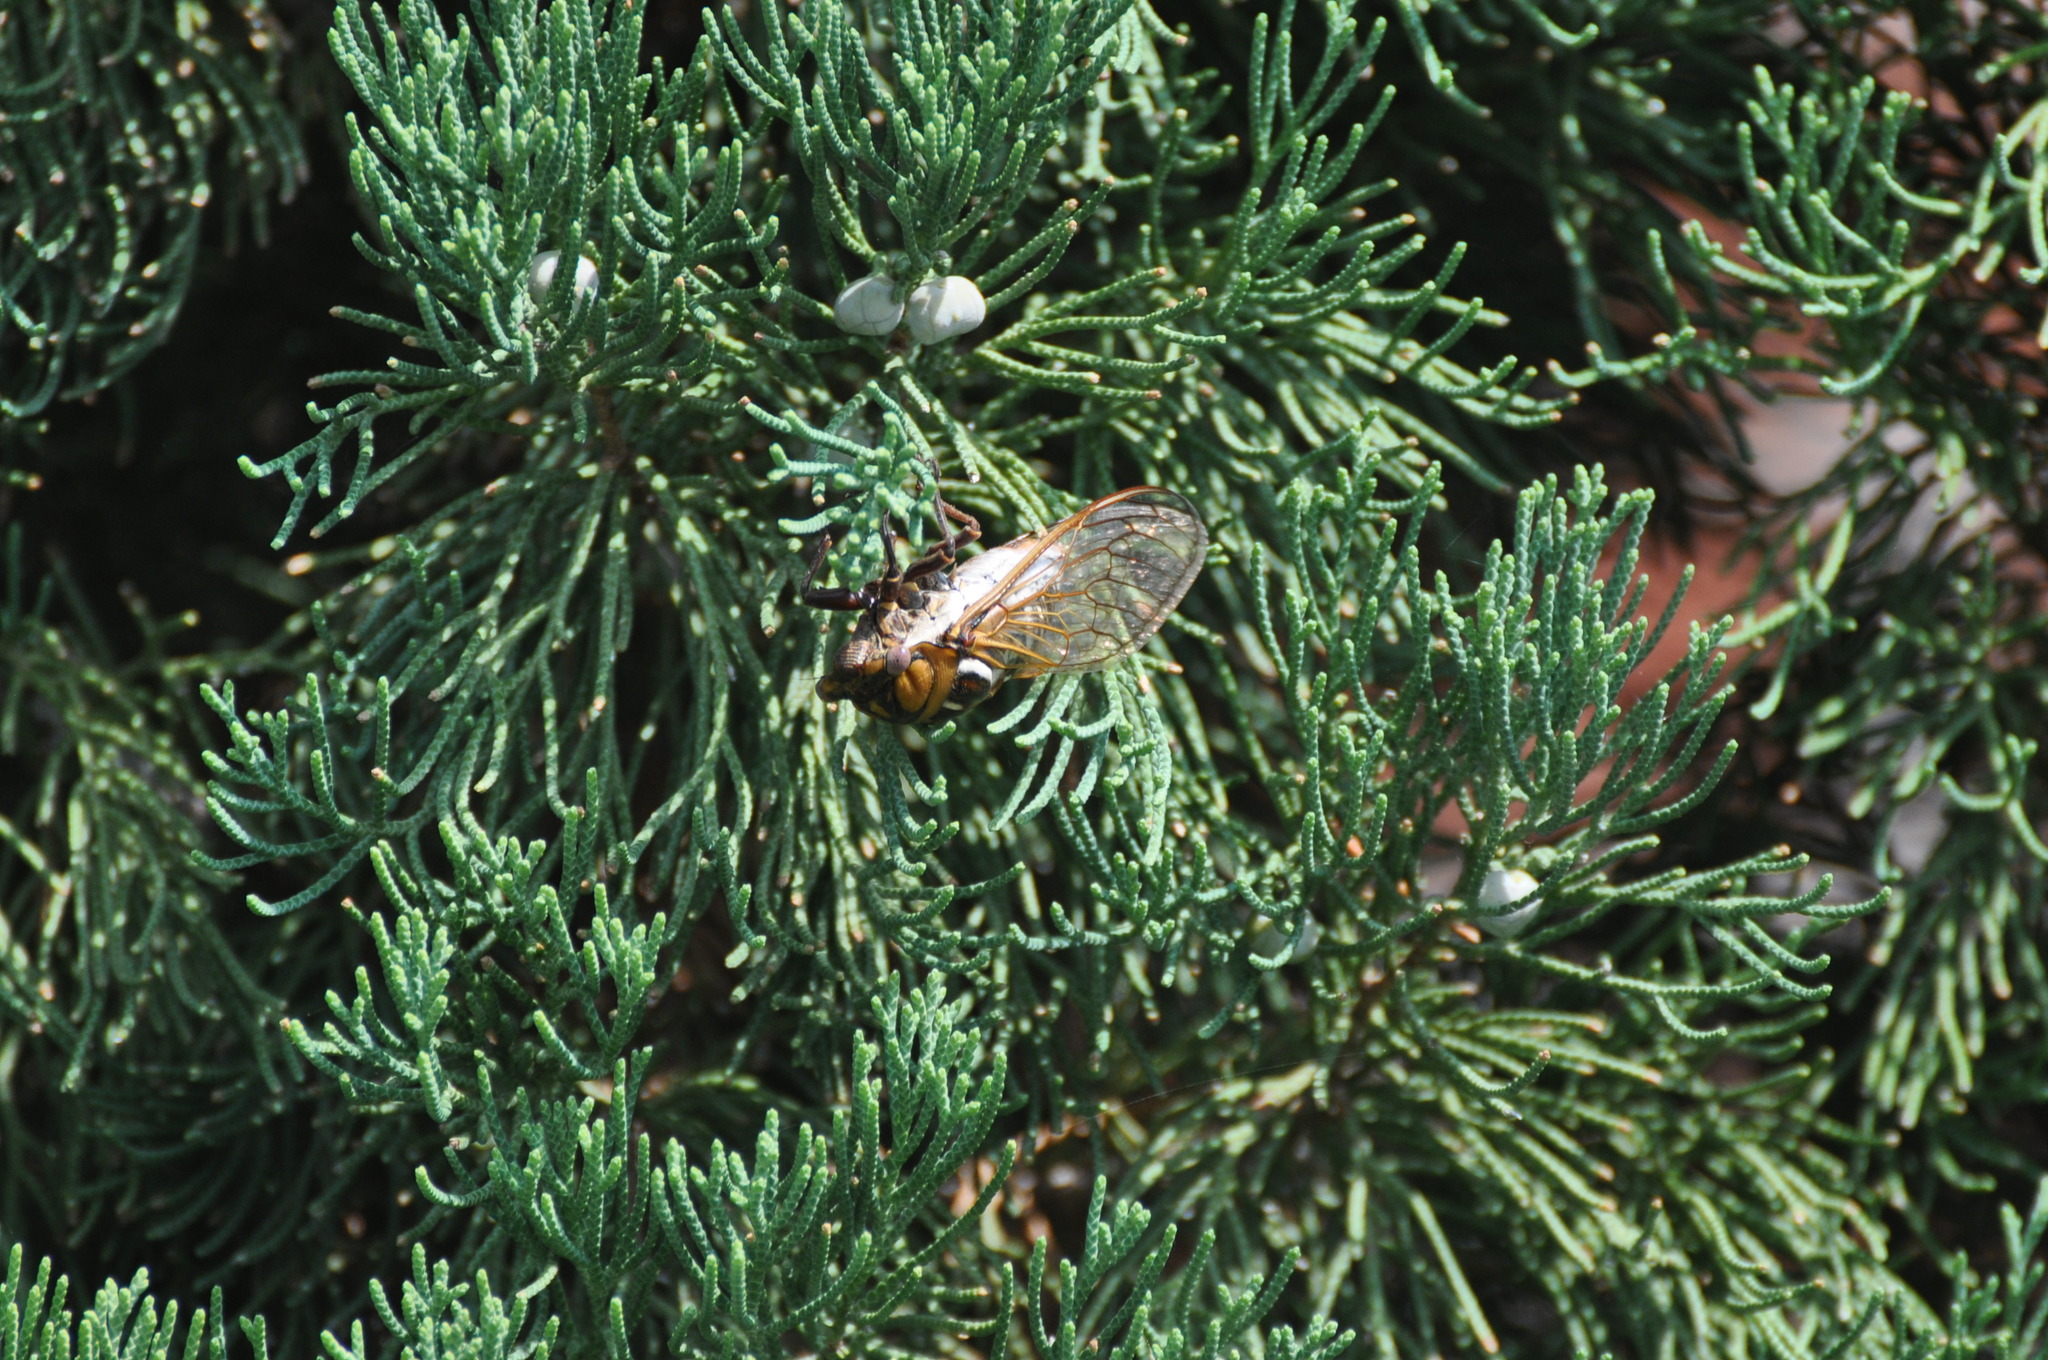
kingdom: Animalia
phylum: Arthropoda
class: Insecta
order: Hemiptera
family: Cicadidae
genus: Megatibicen
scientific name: Megatibicen dorsatus
